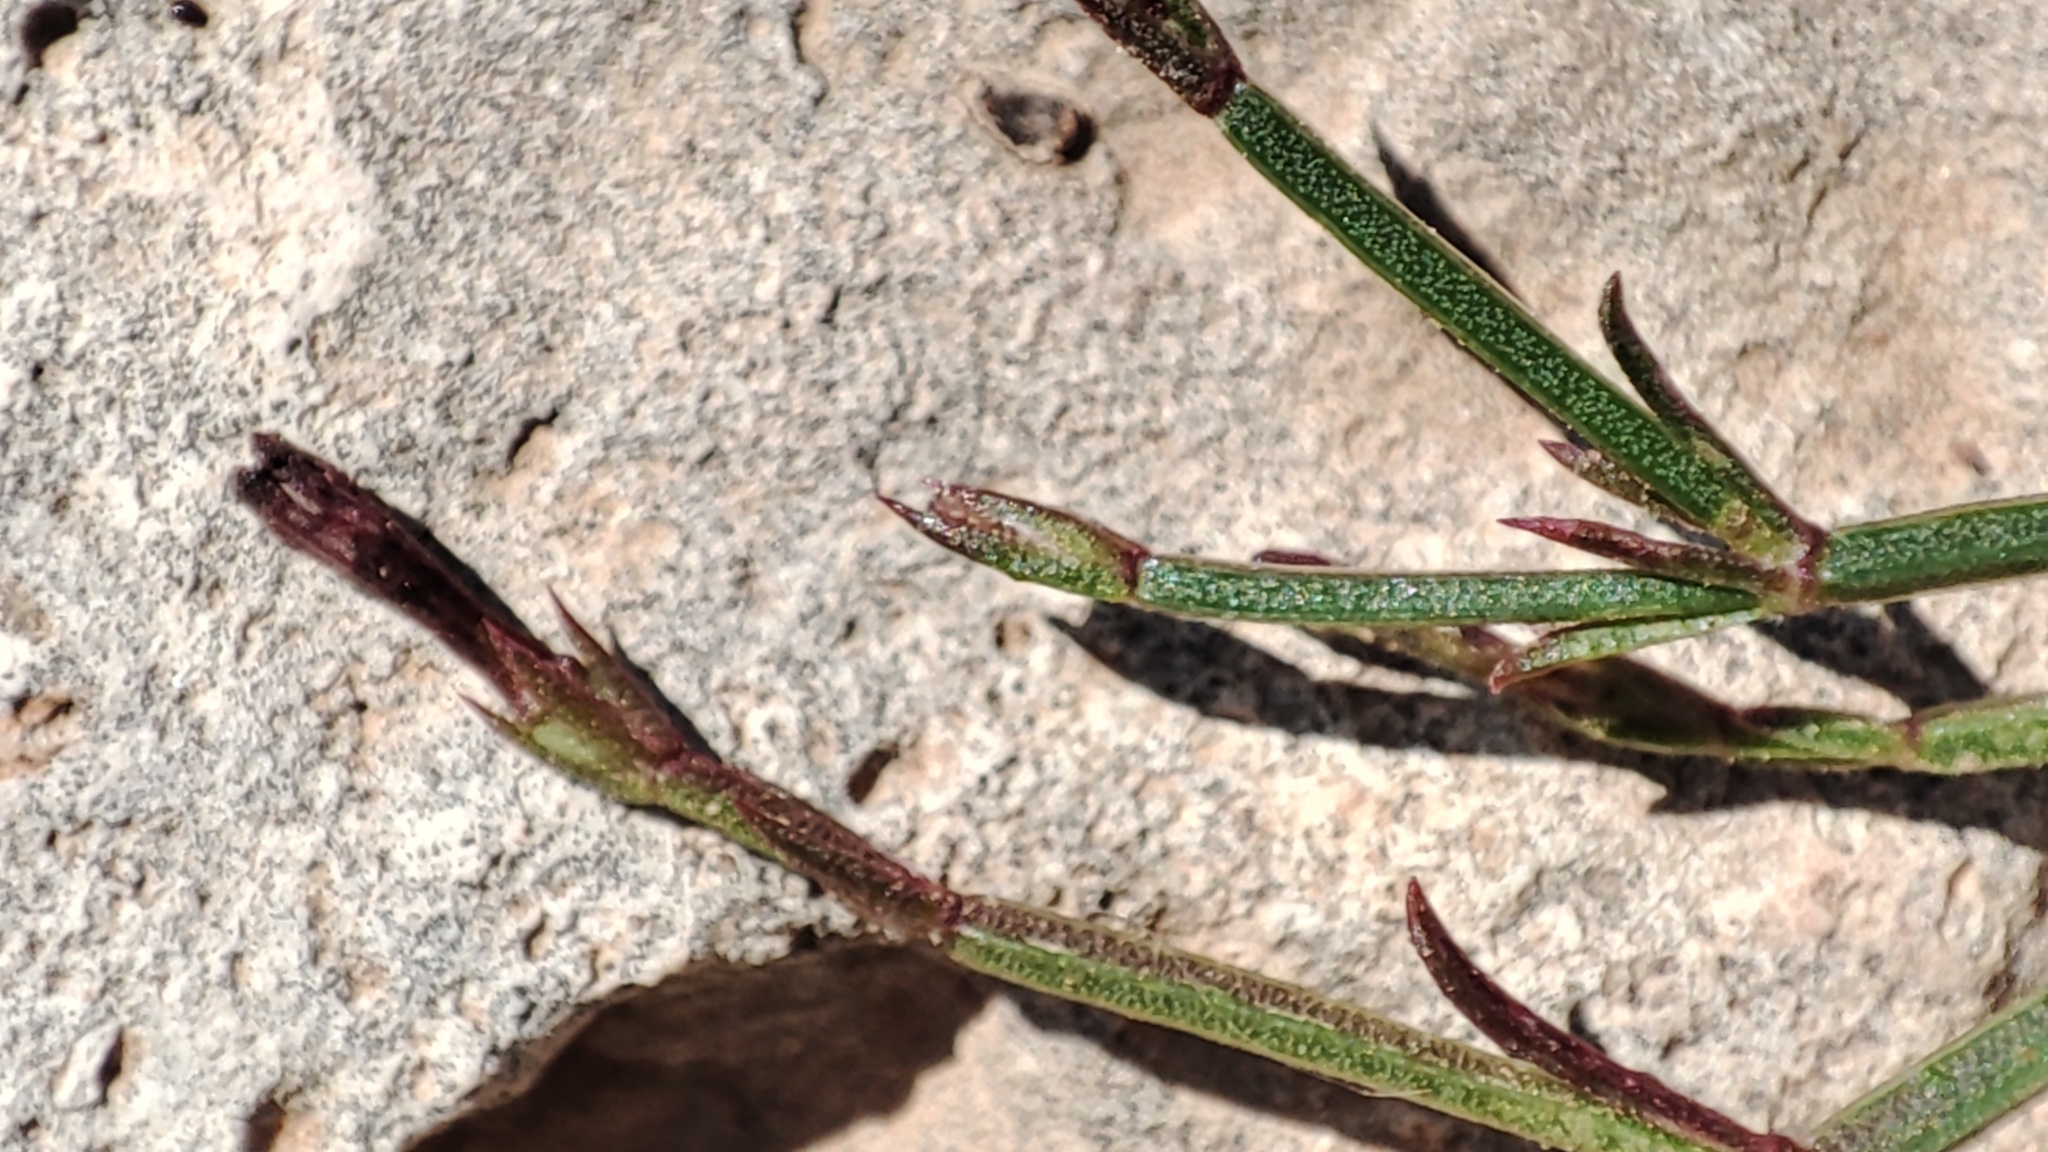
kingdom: Plantae
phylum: Tracheophyta
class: Magnoliopsida
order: Gentianales
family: Rubiaceae
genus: Thliphthisa
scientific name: Thliphthisa rigida
